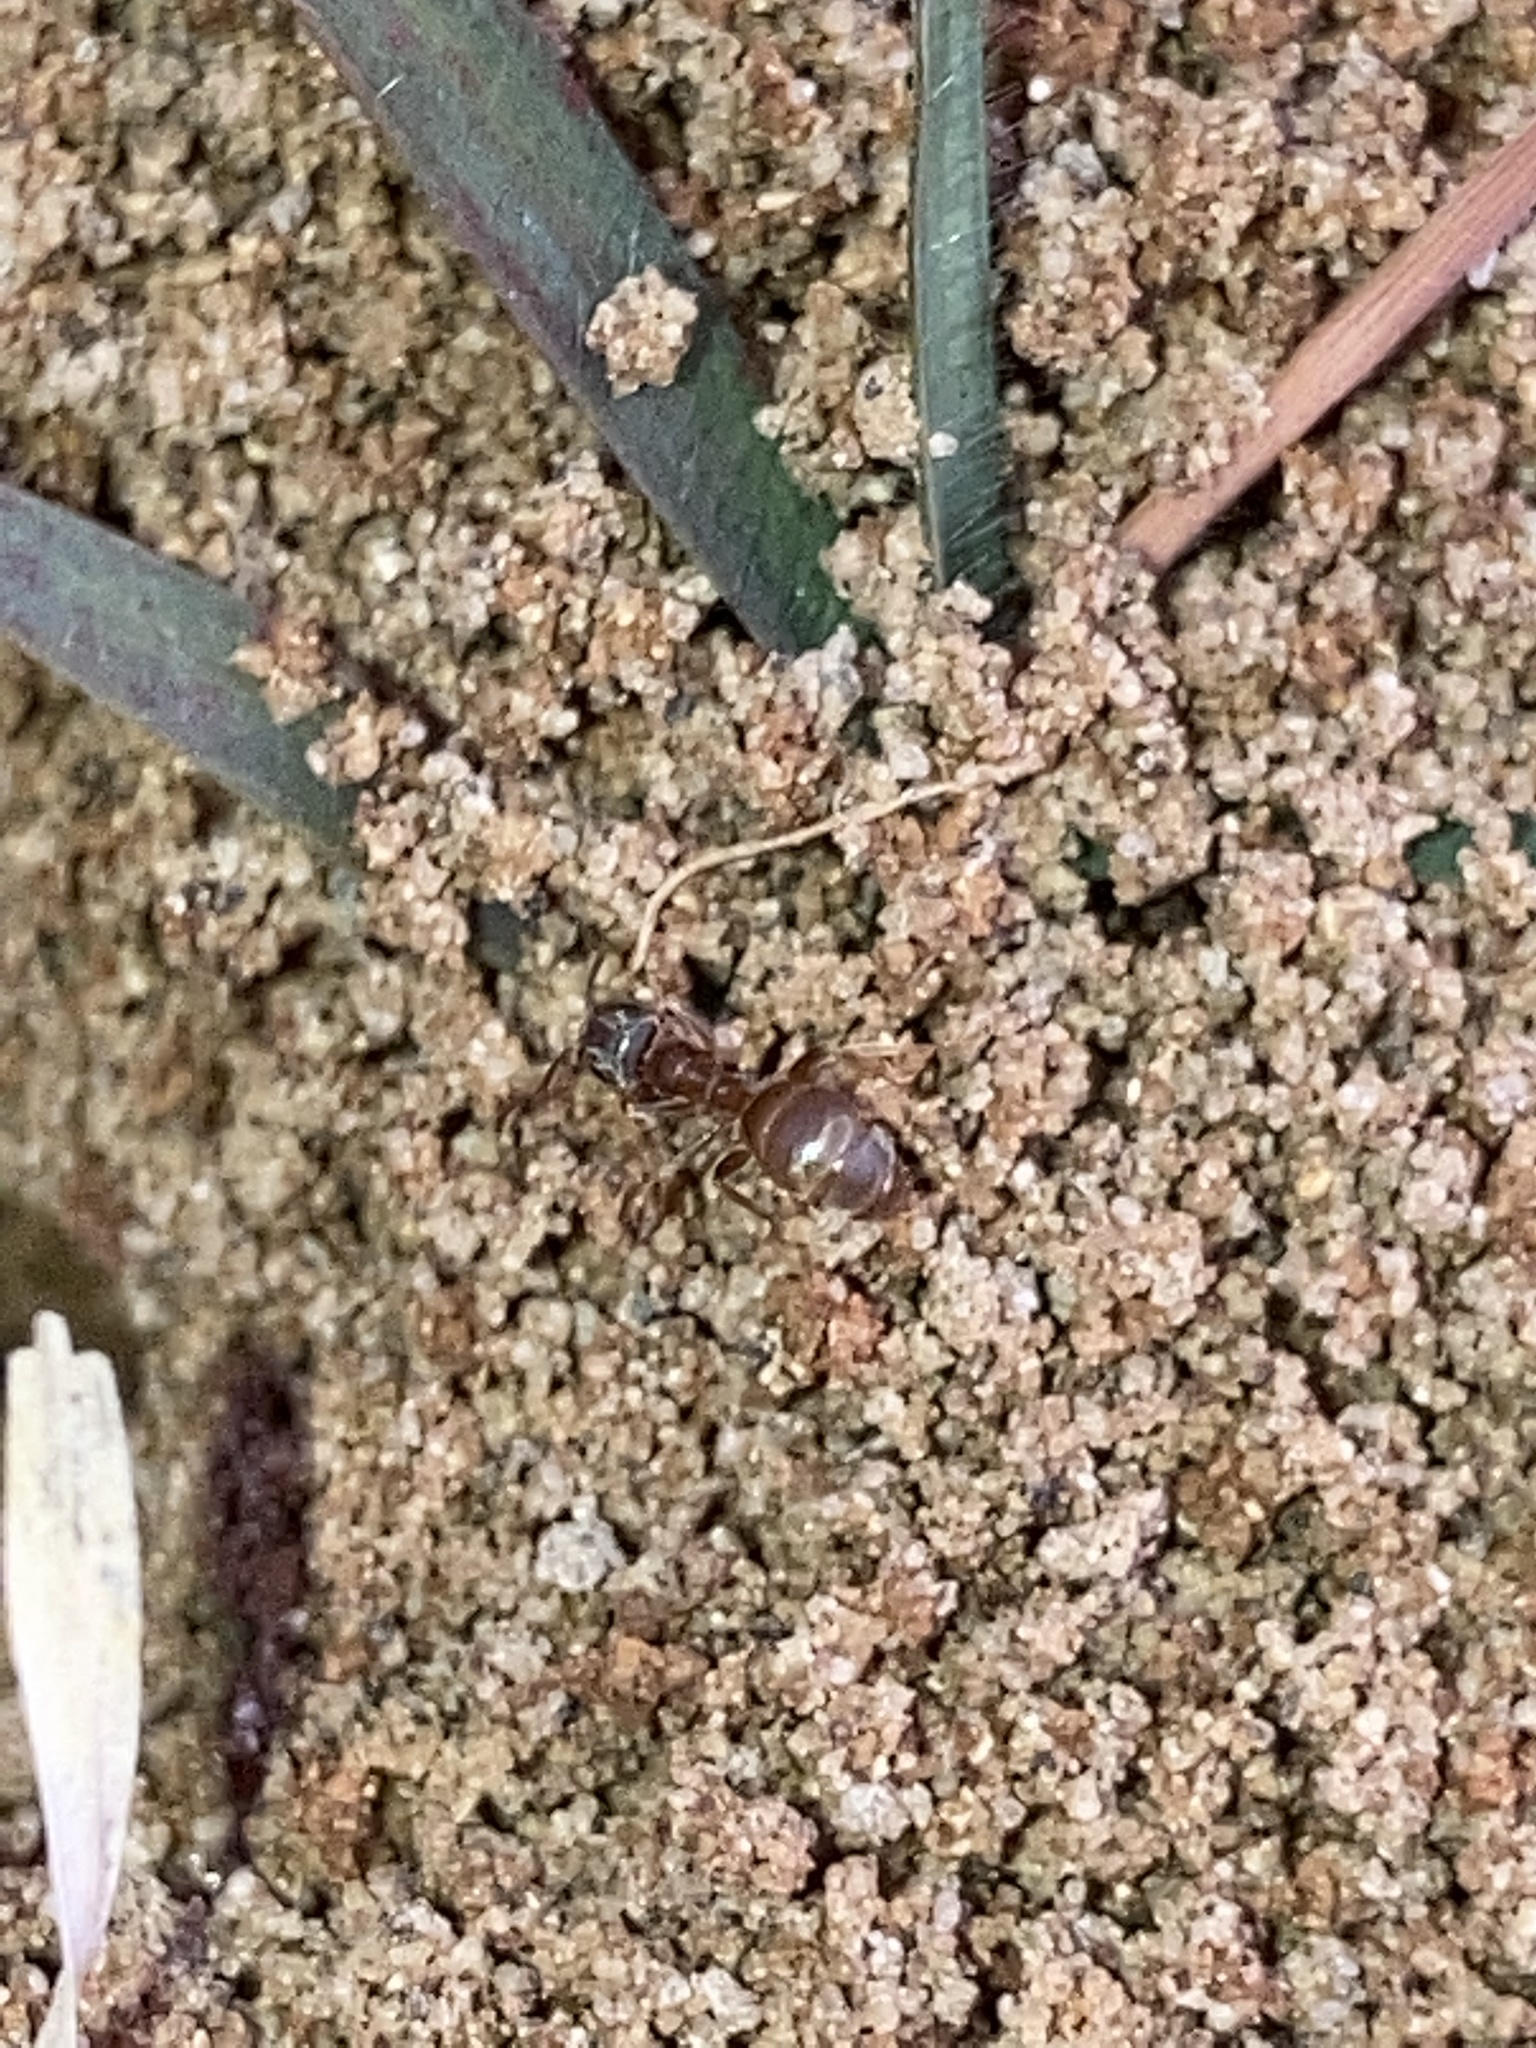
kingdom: Animalia
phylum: Arthropoda
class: Insecta
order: Hymenoptera
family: Formicidae
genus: Lasius
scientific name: Lasius neoniger
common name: Turfgrass ant
